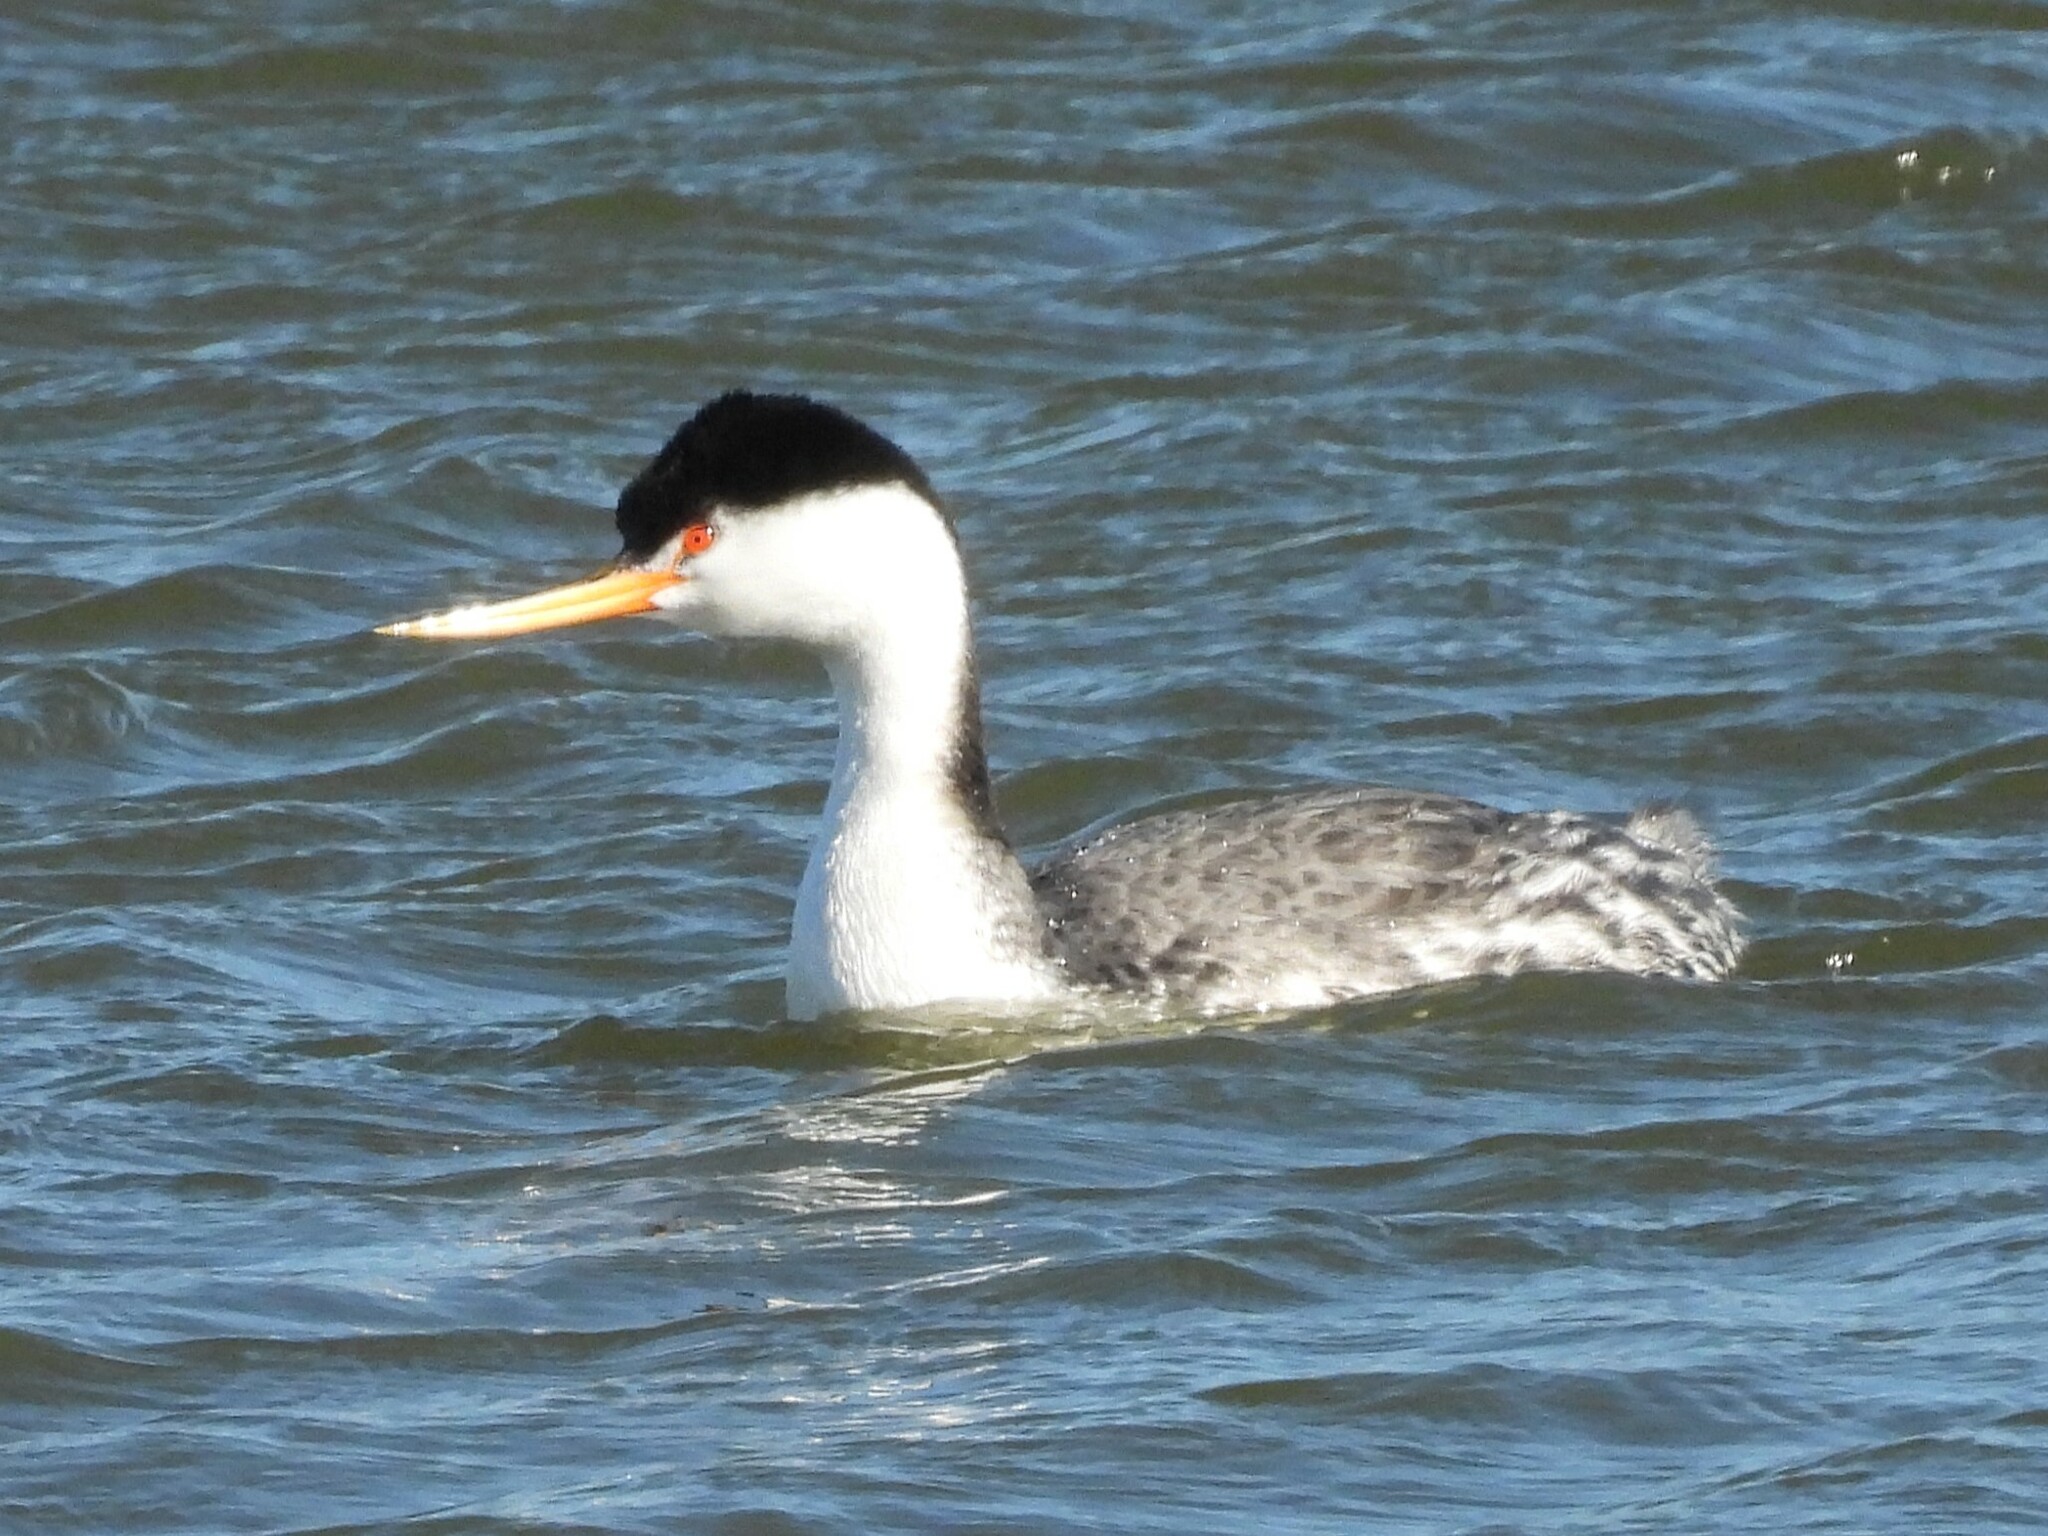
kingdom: Animalia
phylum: Chordata
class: Aves
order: Podicipediformes
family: Podicipedidae
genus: Aechmophorus
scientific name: Aechmophorus clarkii
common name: Clark's grebe
